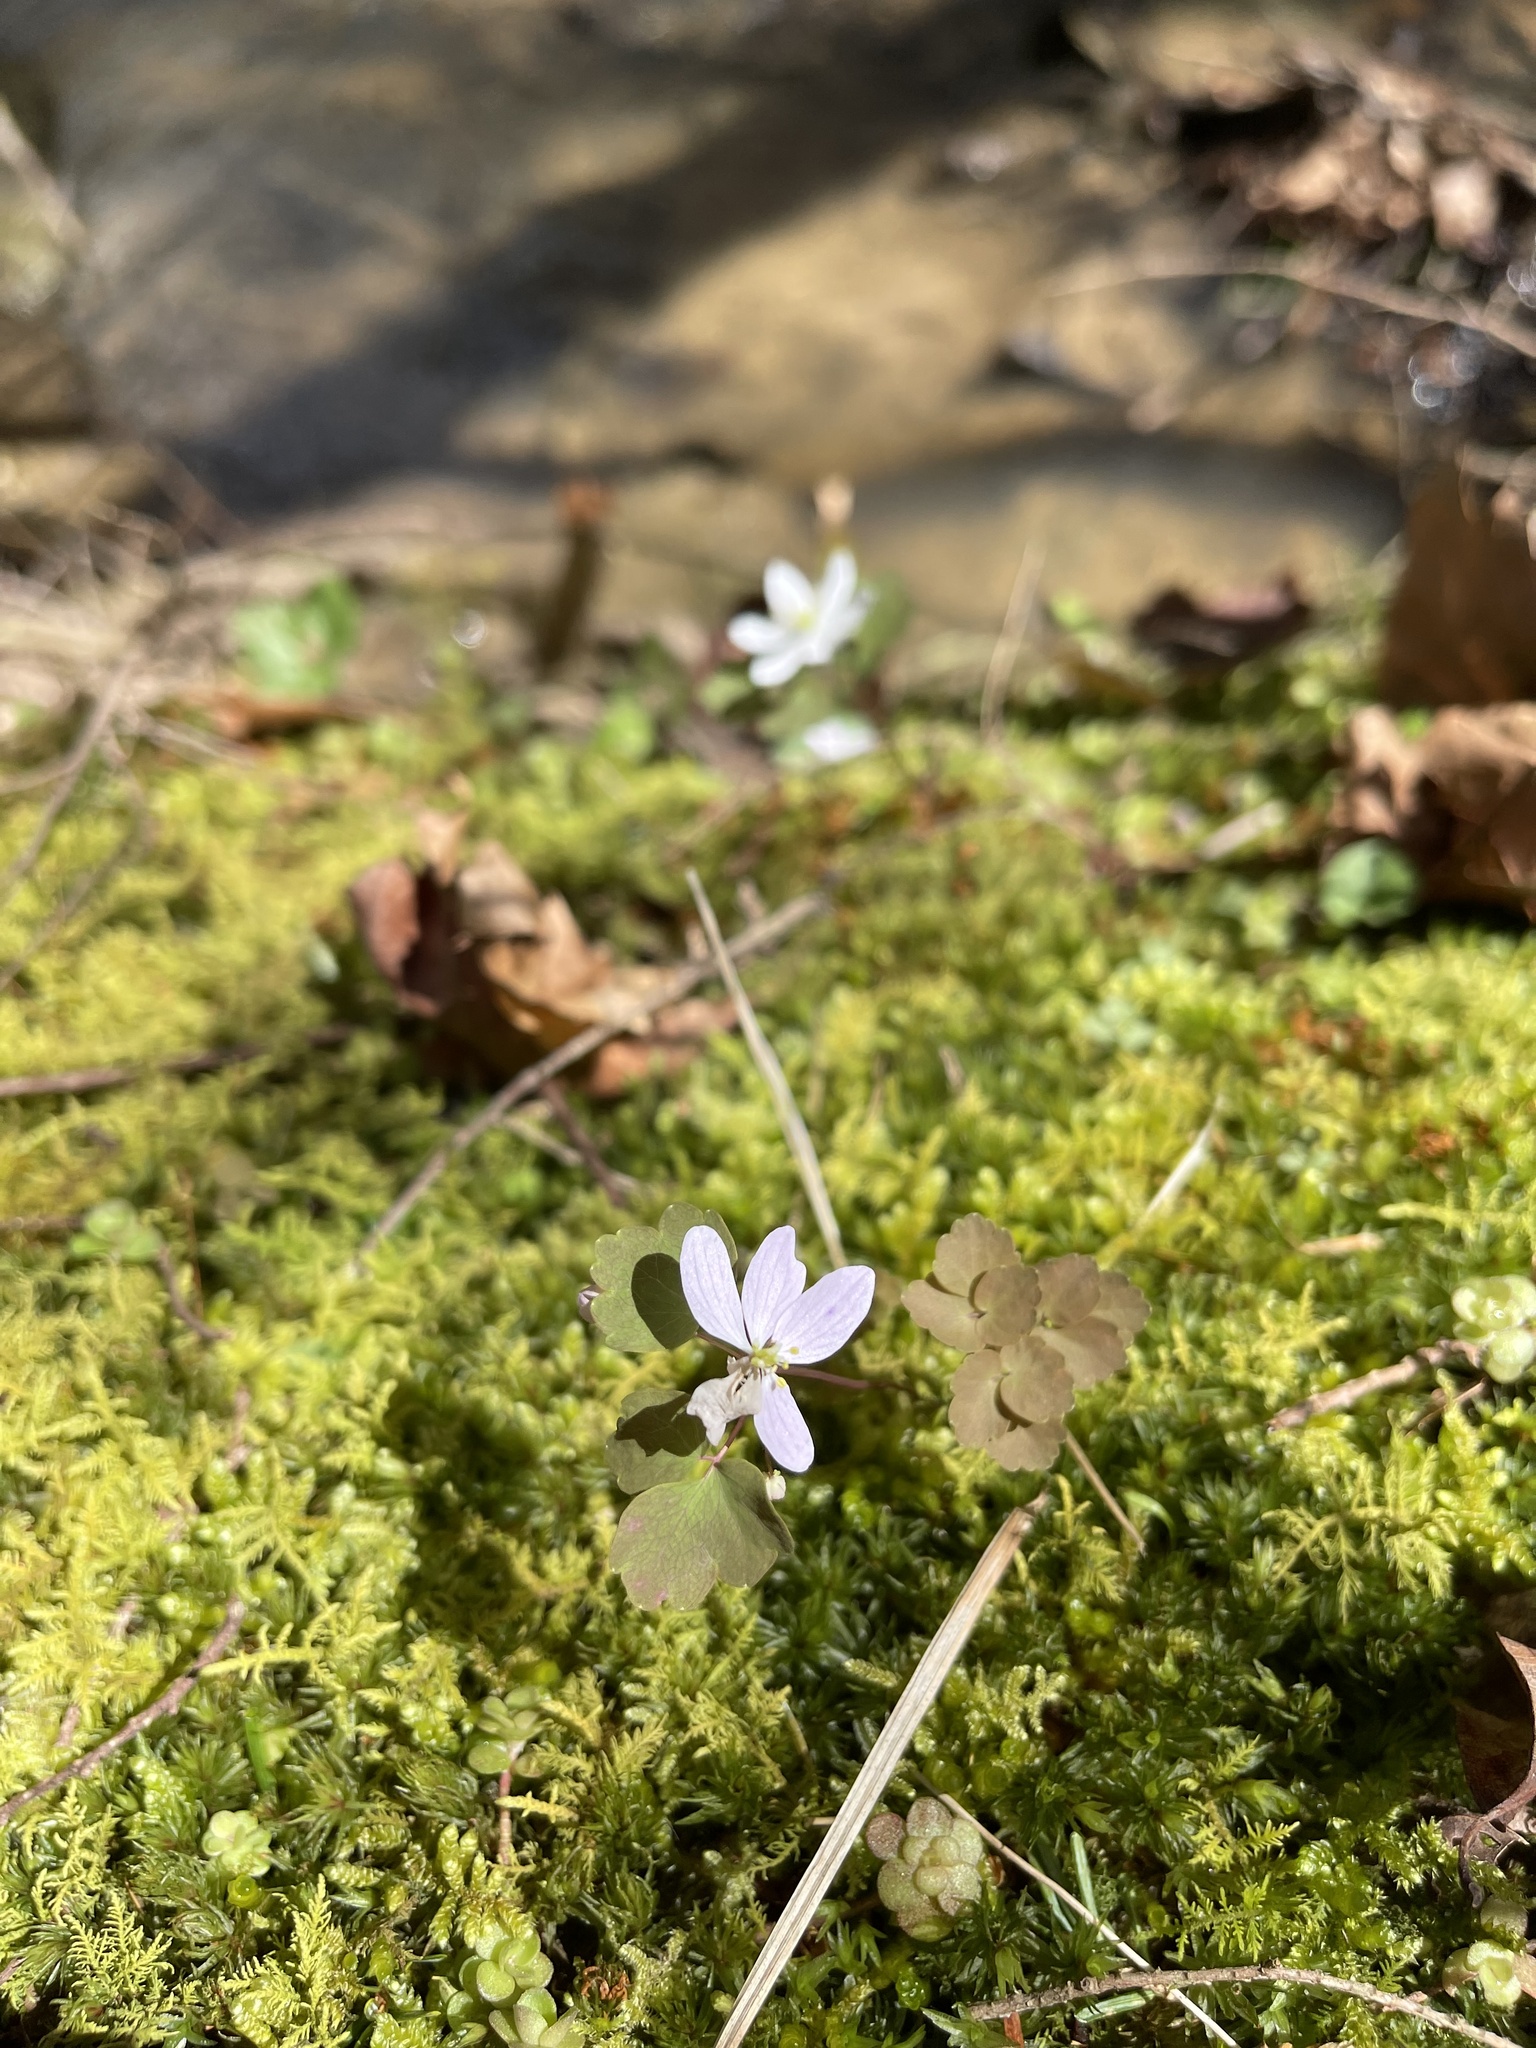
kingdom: Plantae
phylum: Tracheophyta
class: Magnoliopsida
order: Ranunculales
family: Ranunculaceae
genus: Thalictrum
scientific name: Thalictrum thalictroides
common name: Rue-anemone
